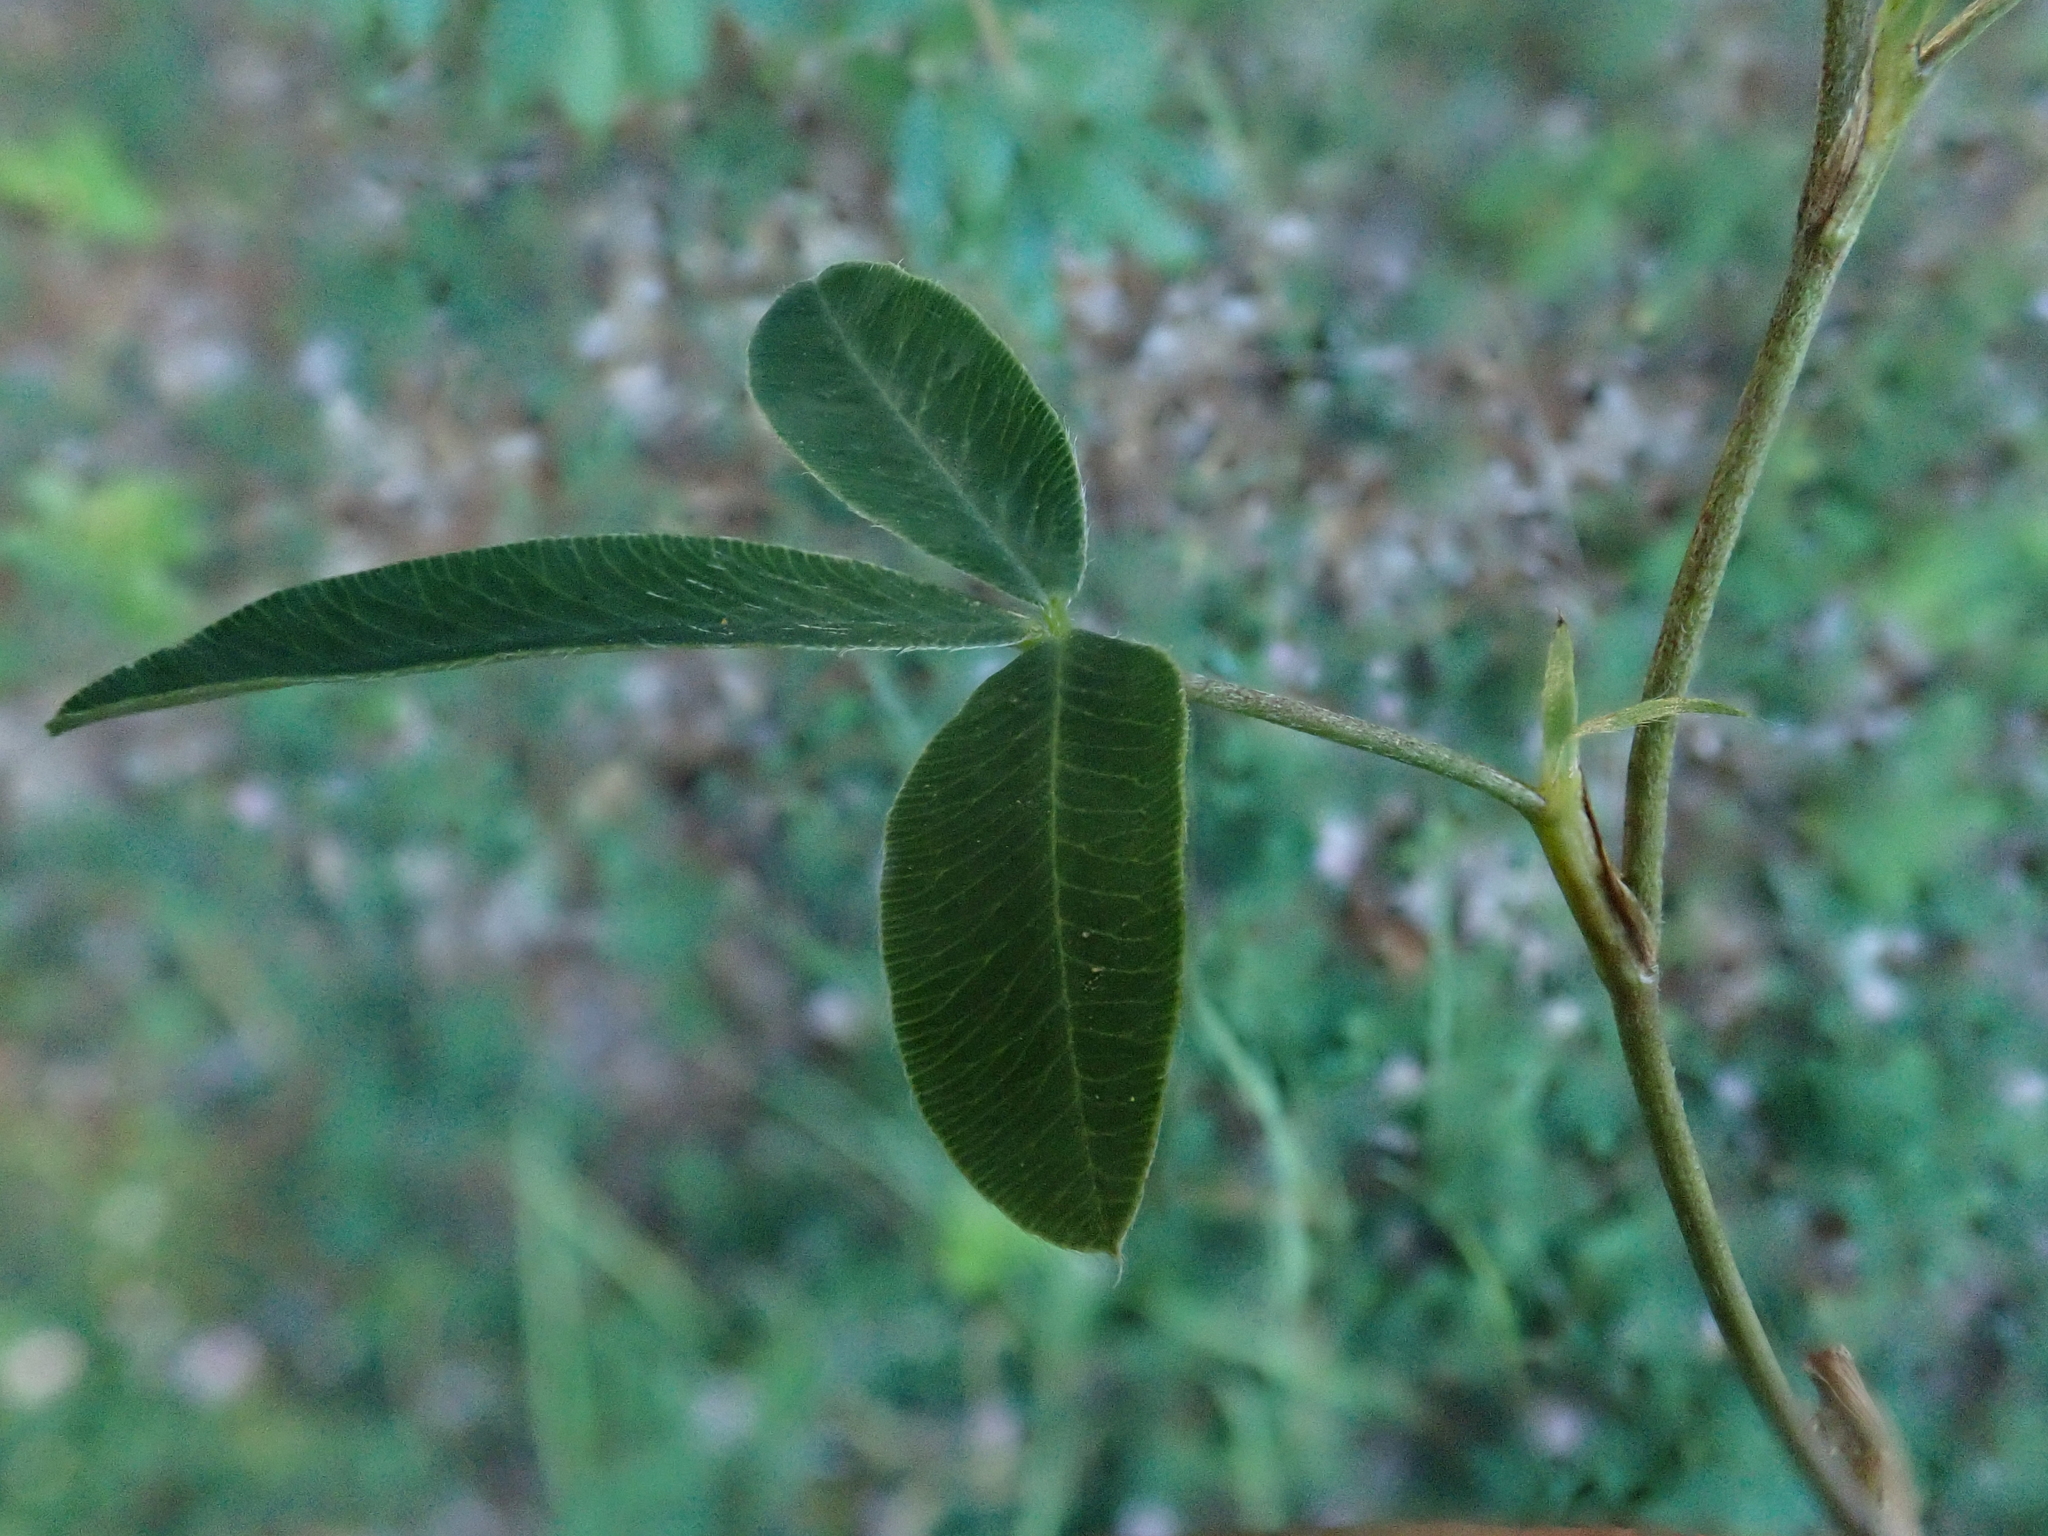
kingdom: Plantae
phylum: Tracheophyta
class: Magnoliopsida
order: Fabales
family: Fabaceae
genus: Trifolium
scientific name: Trifolium medium
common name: Zigzag clover
